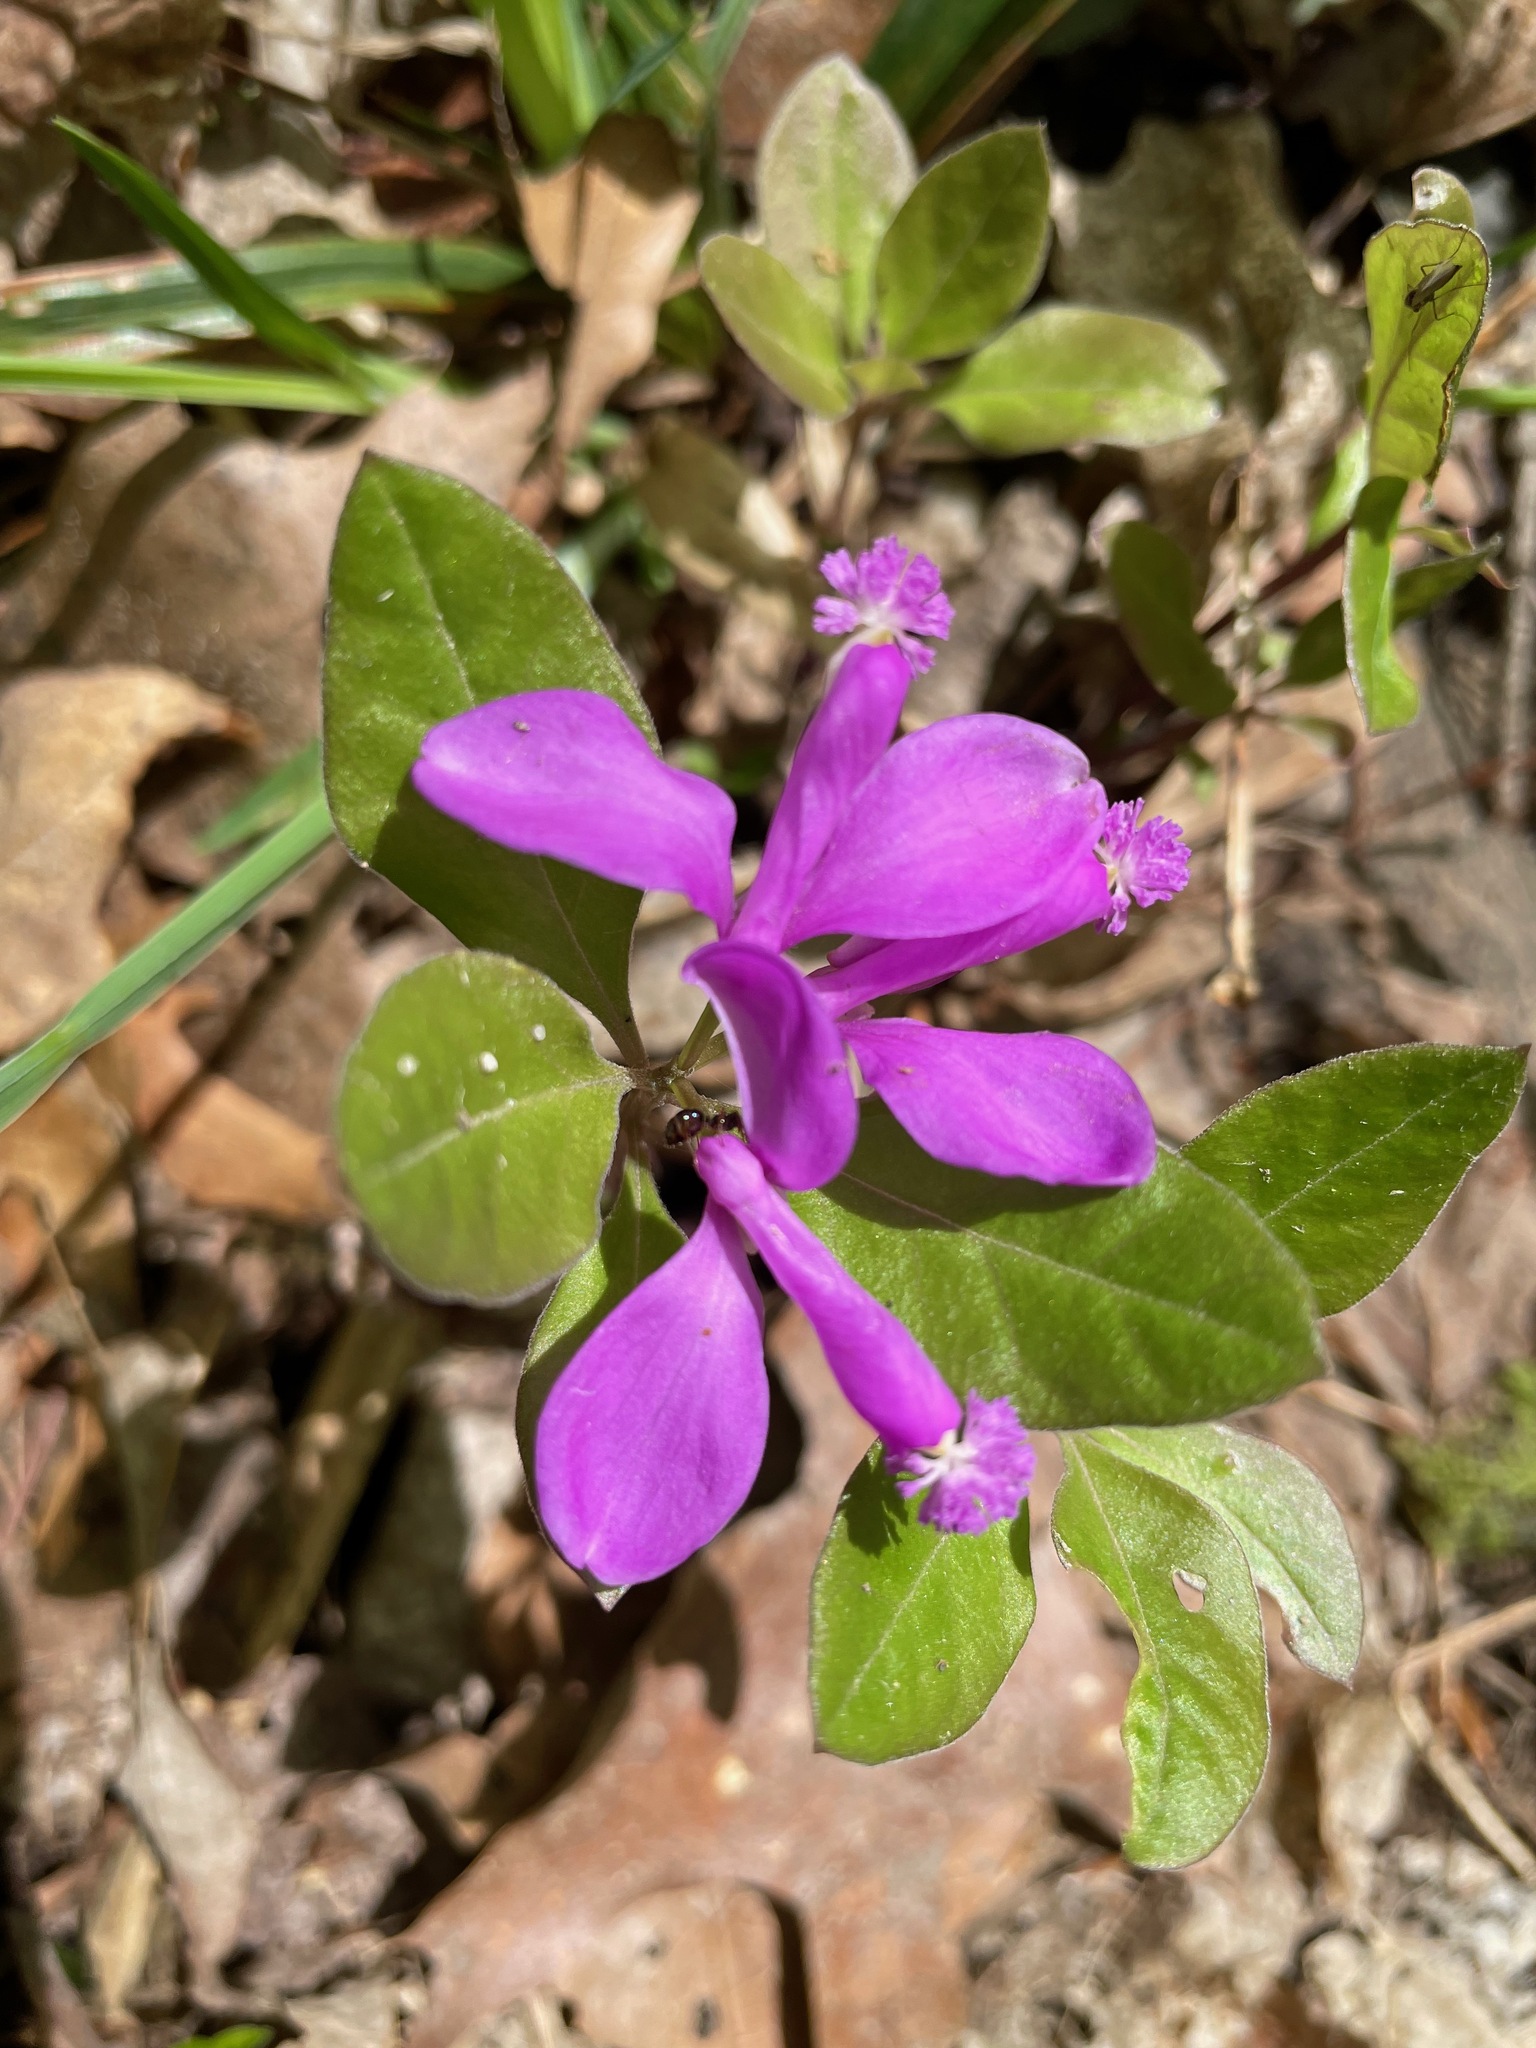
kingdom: Plantae
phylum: Tracheophyta
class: Magnoliopsida
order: Fabales
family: Polygalaceae
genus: Polygaloides
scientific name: Polygaloides paucifolia
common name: Bird-on-the-wing
